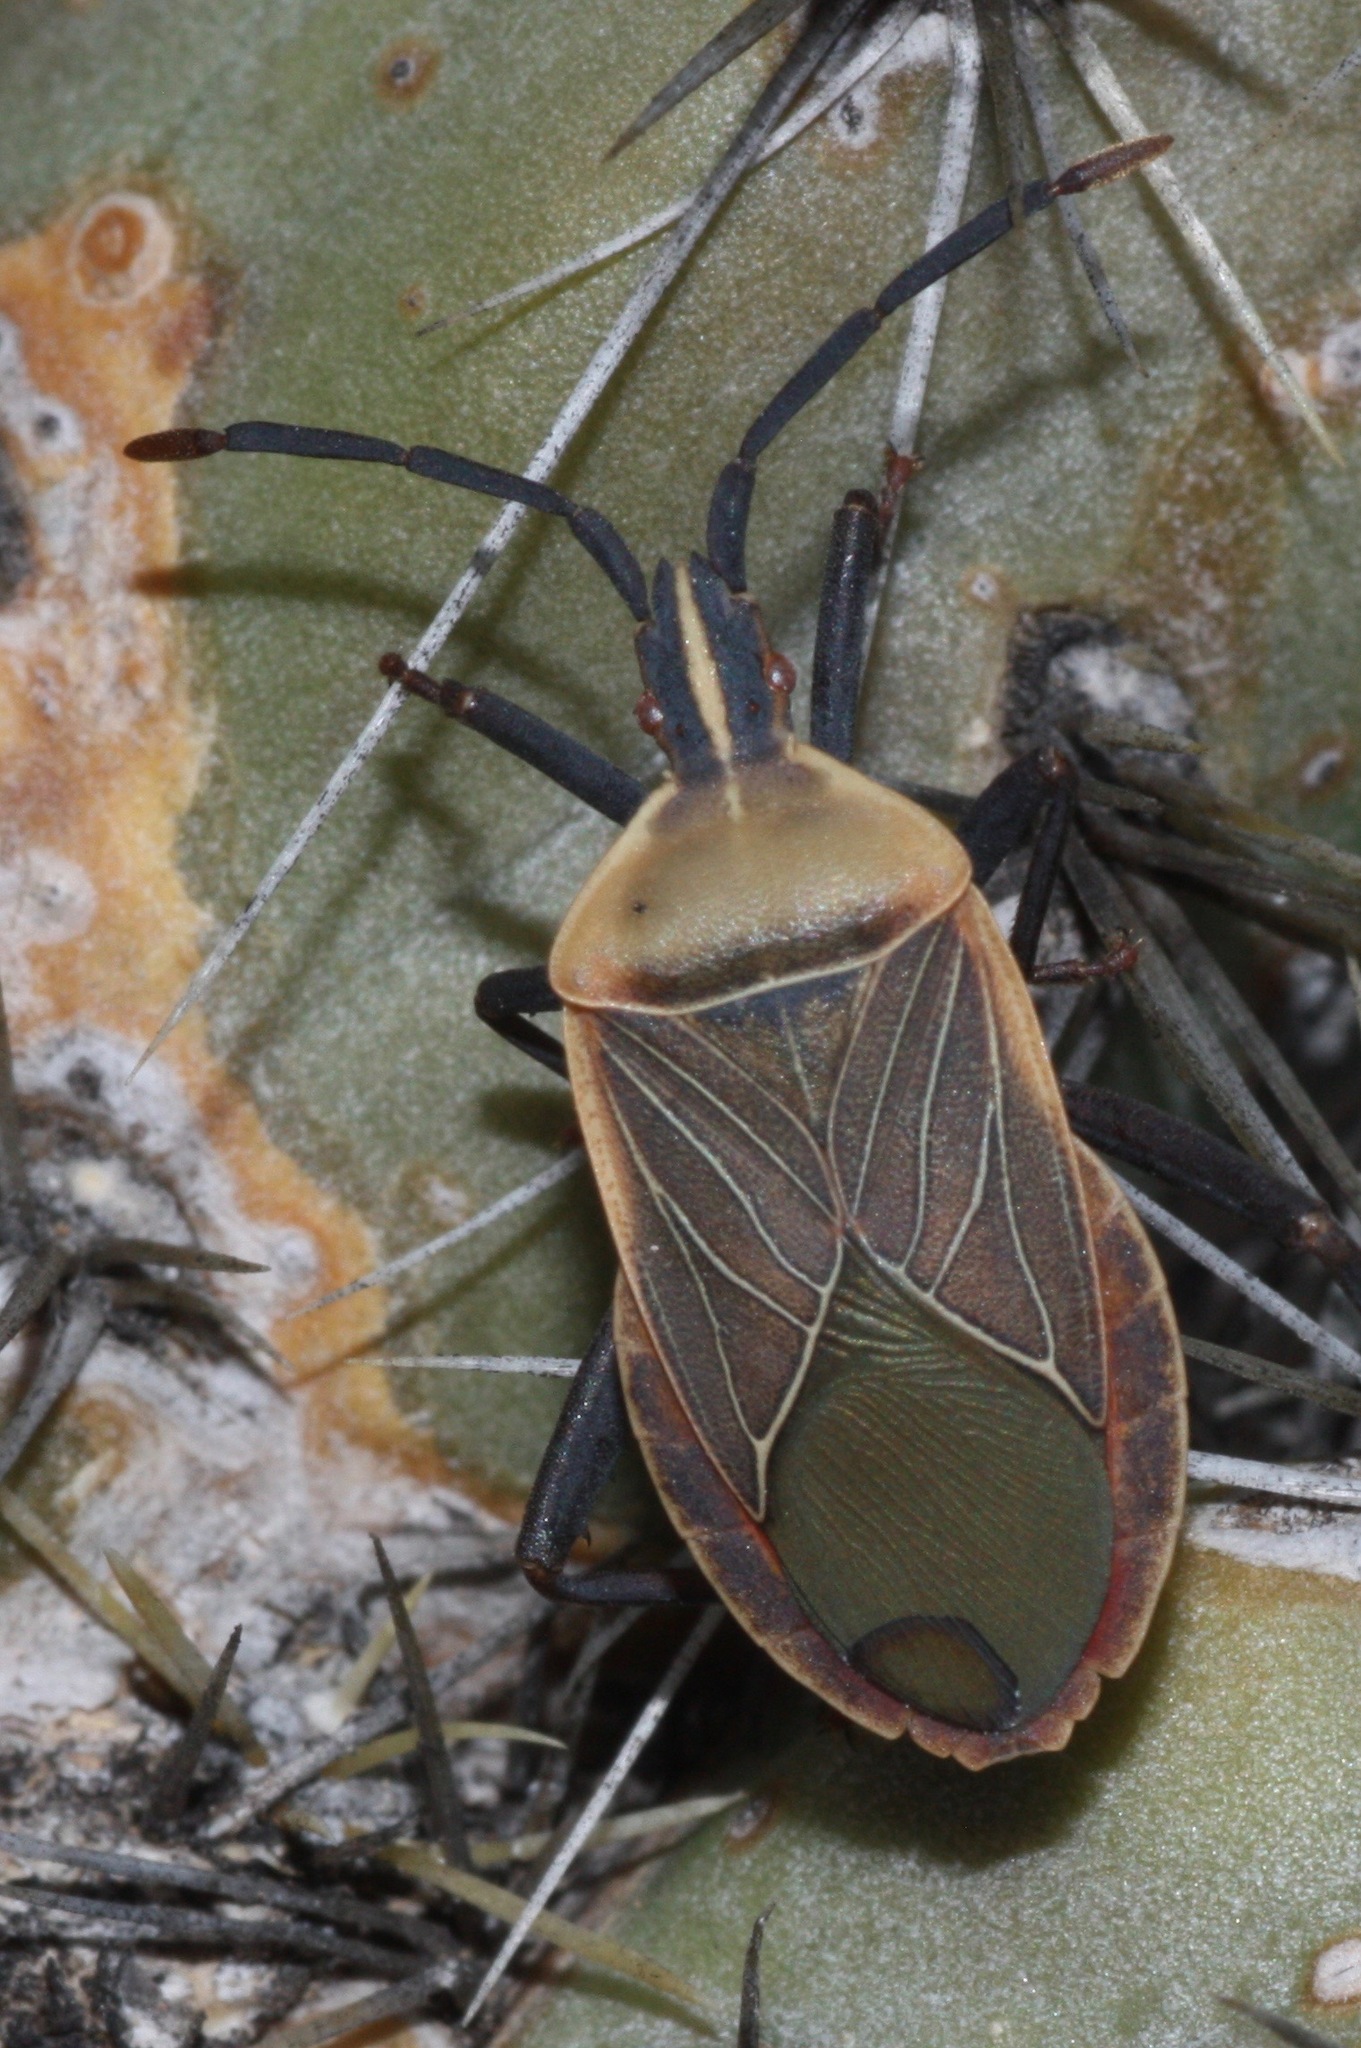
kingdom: Animalia
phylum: Arthropoda
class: Insecta
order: Hemiptera
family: Coreidae
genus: Chelinidea
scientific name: Chelinidea vittiger
